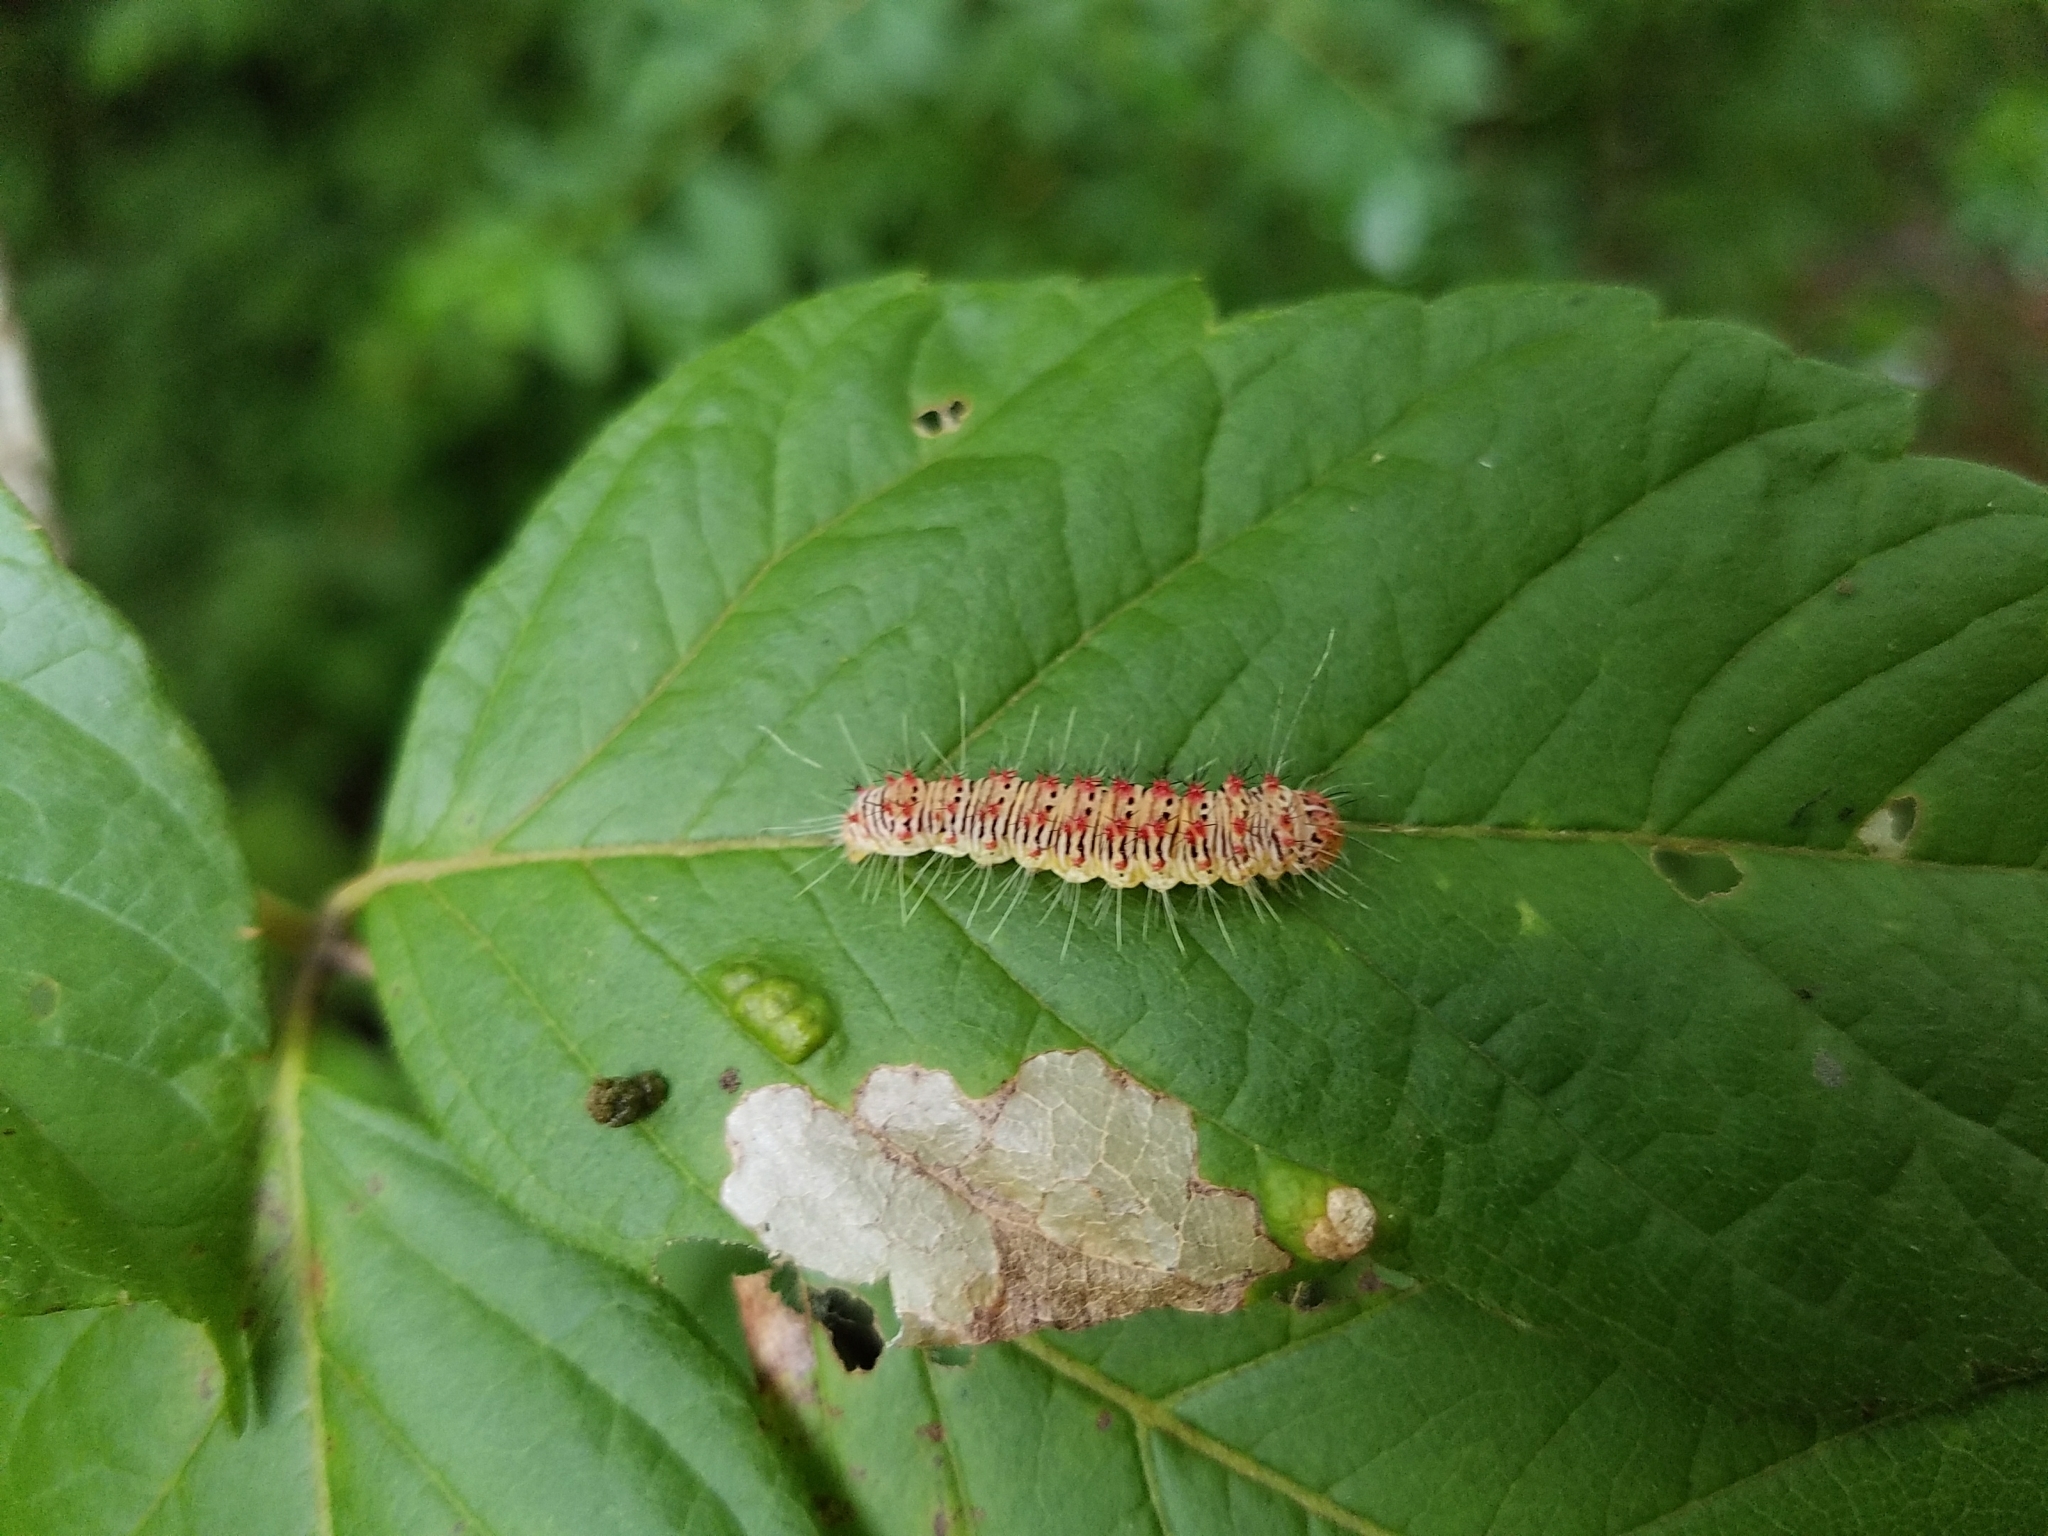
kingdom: Animalia
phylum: Arthropoda
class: Insecta
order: Lepidoptera
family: Noctuidae
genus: Acronicta
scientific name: Acronicta retardata
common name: Maple dagger
